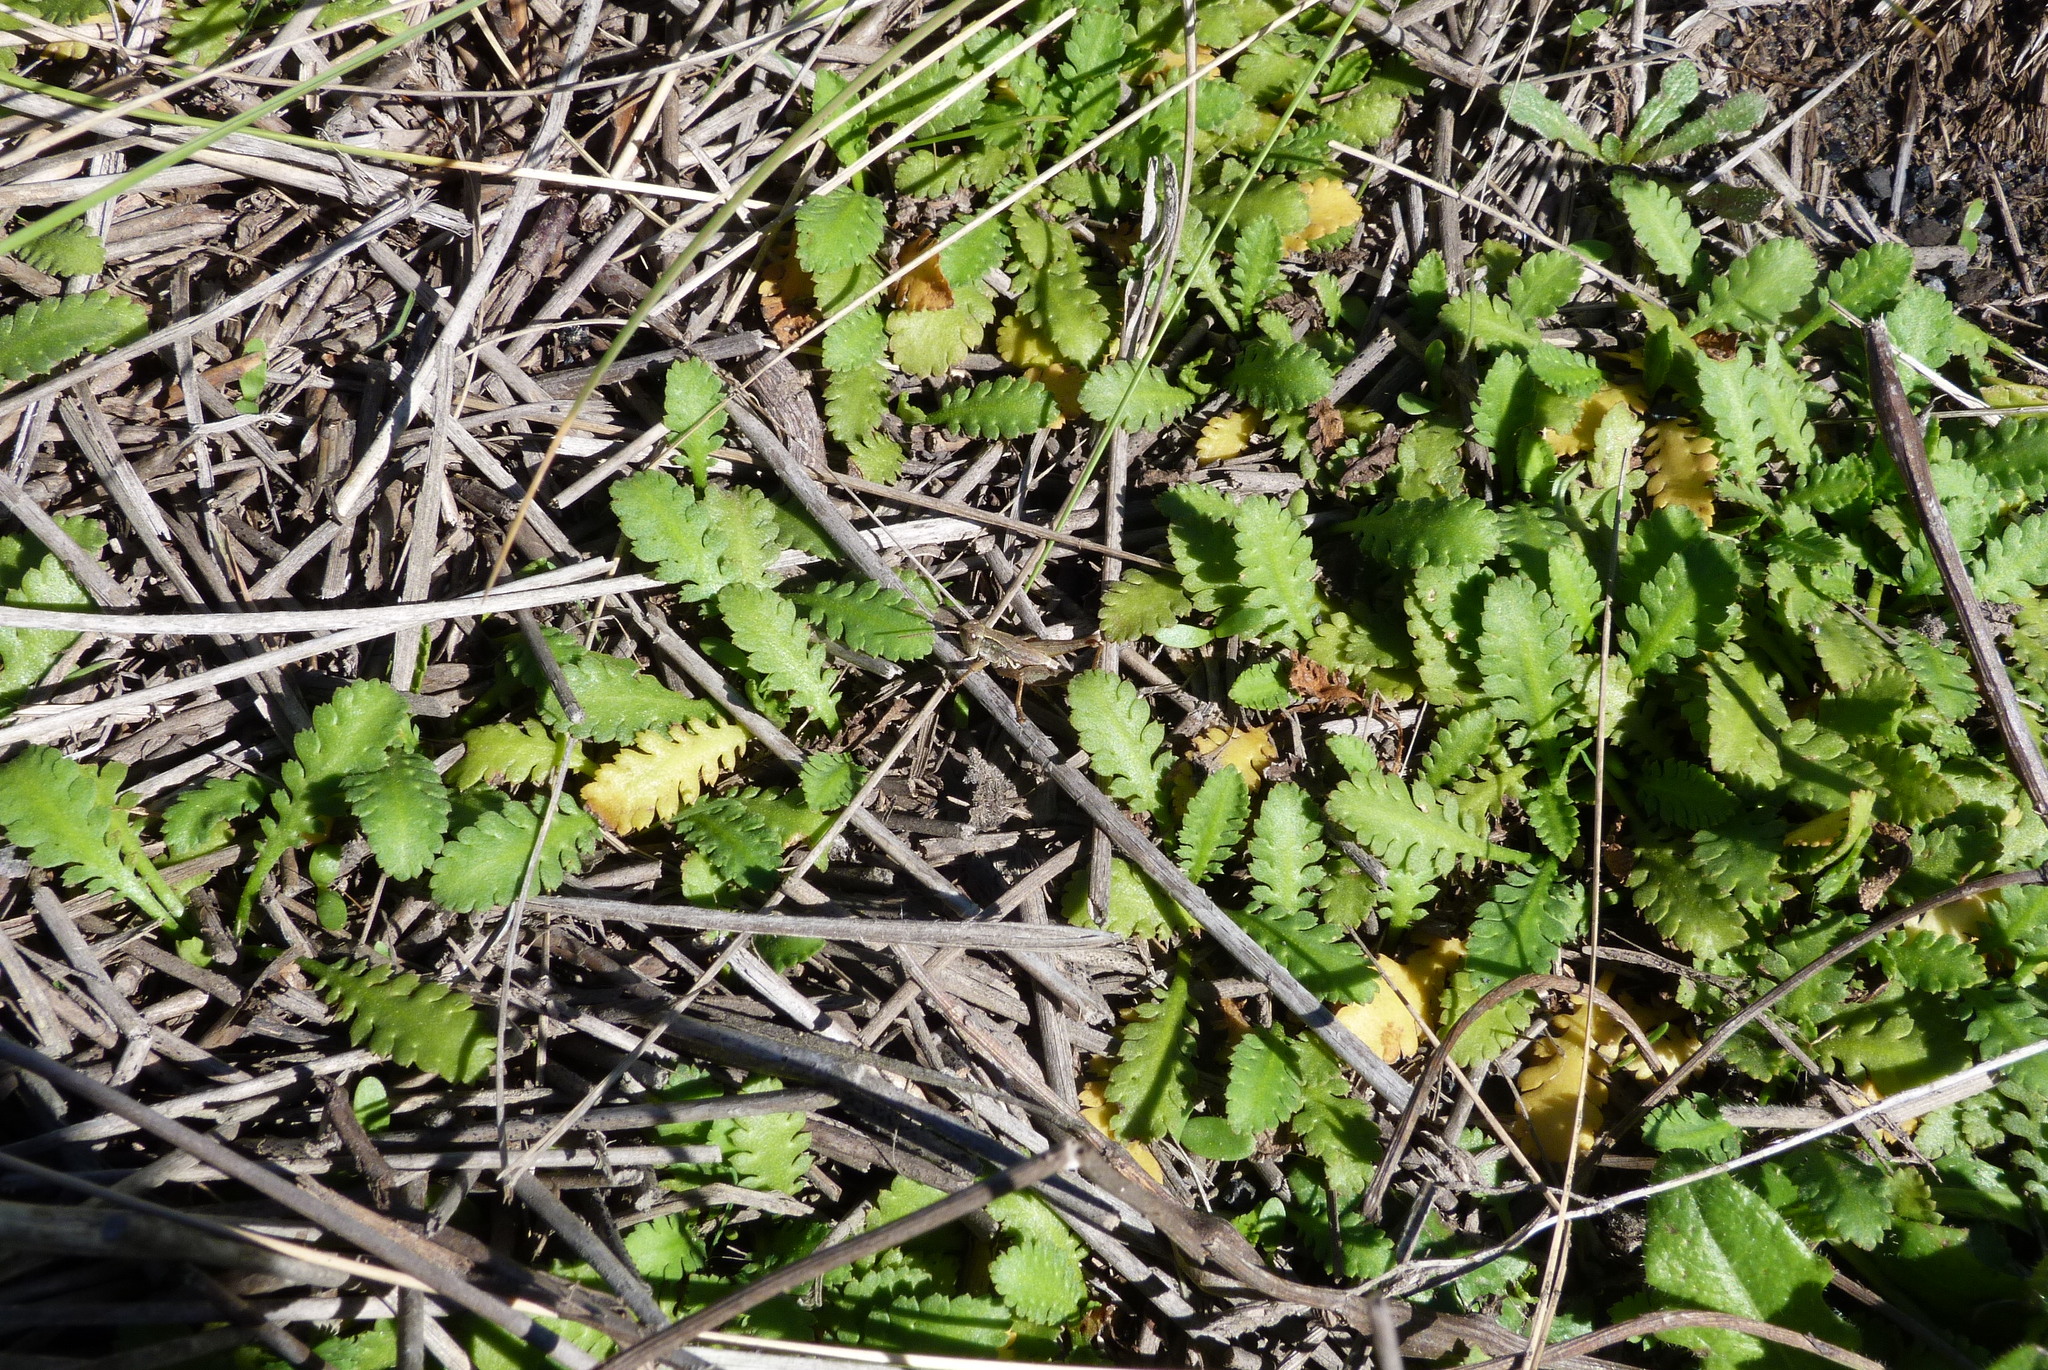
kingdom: Plantae
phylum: Tracheophyta
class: Magnoliopsida
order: Asterales
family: Asteraceae
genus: Leptinella
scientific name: Leptinella dioica
